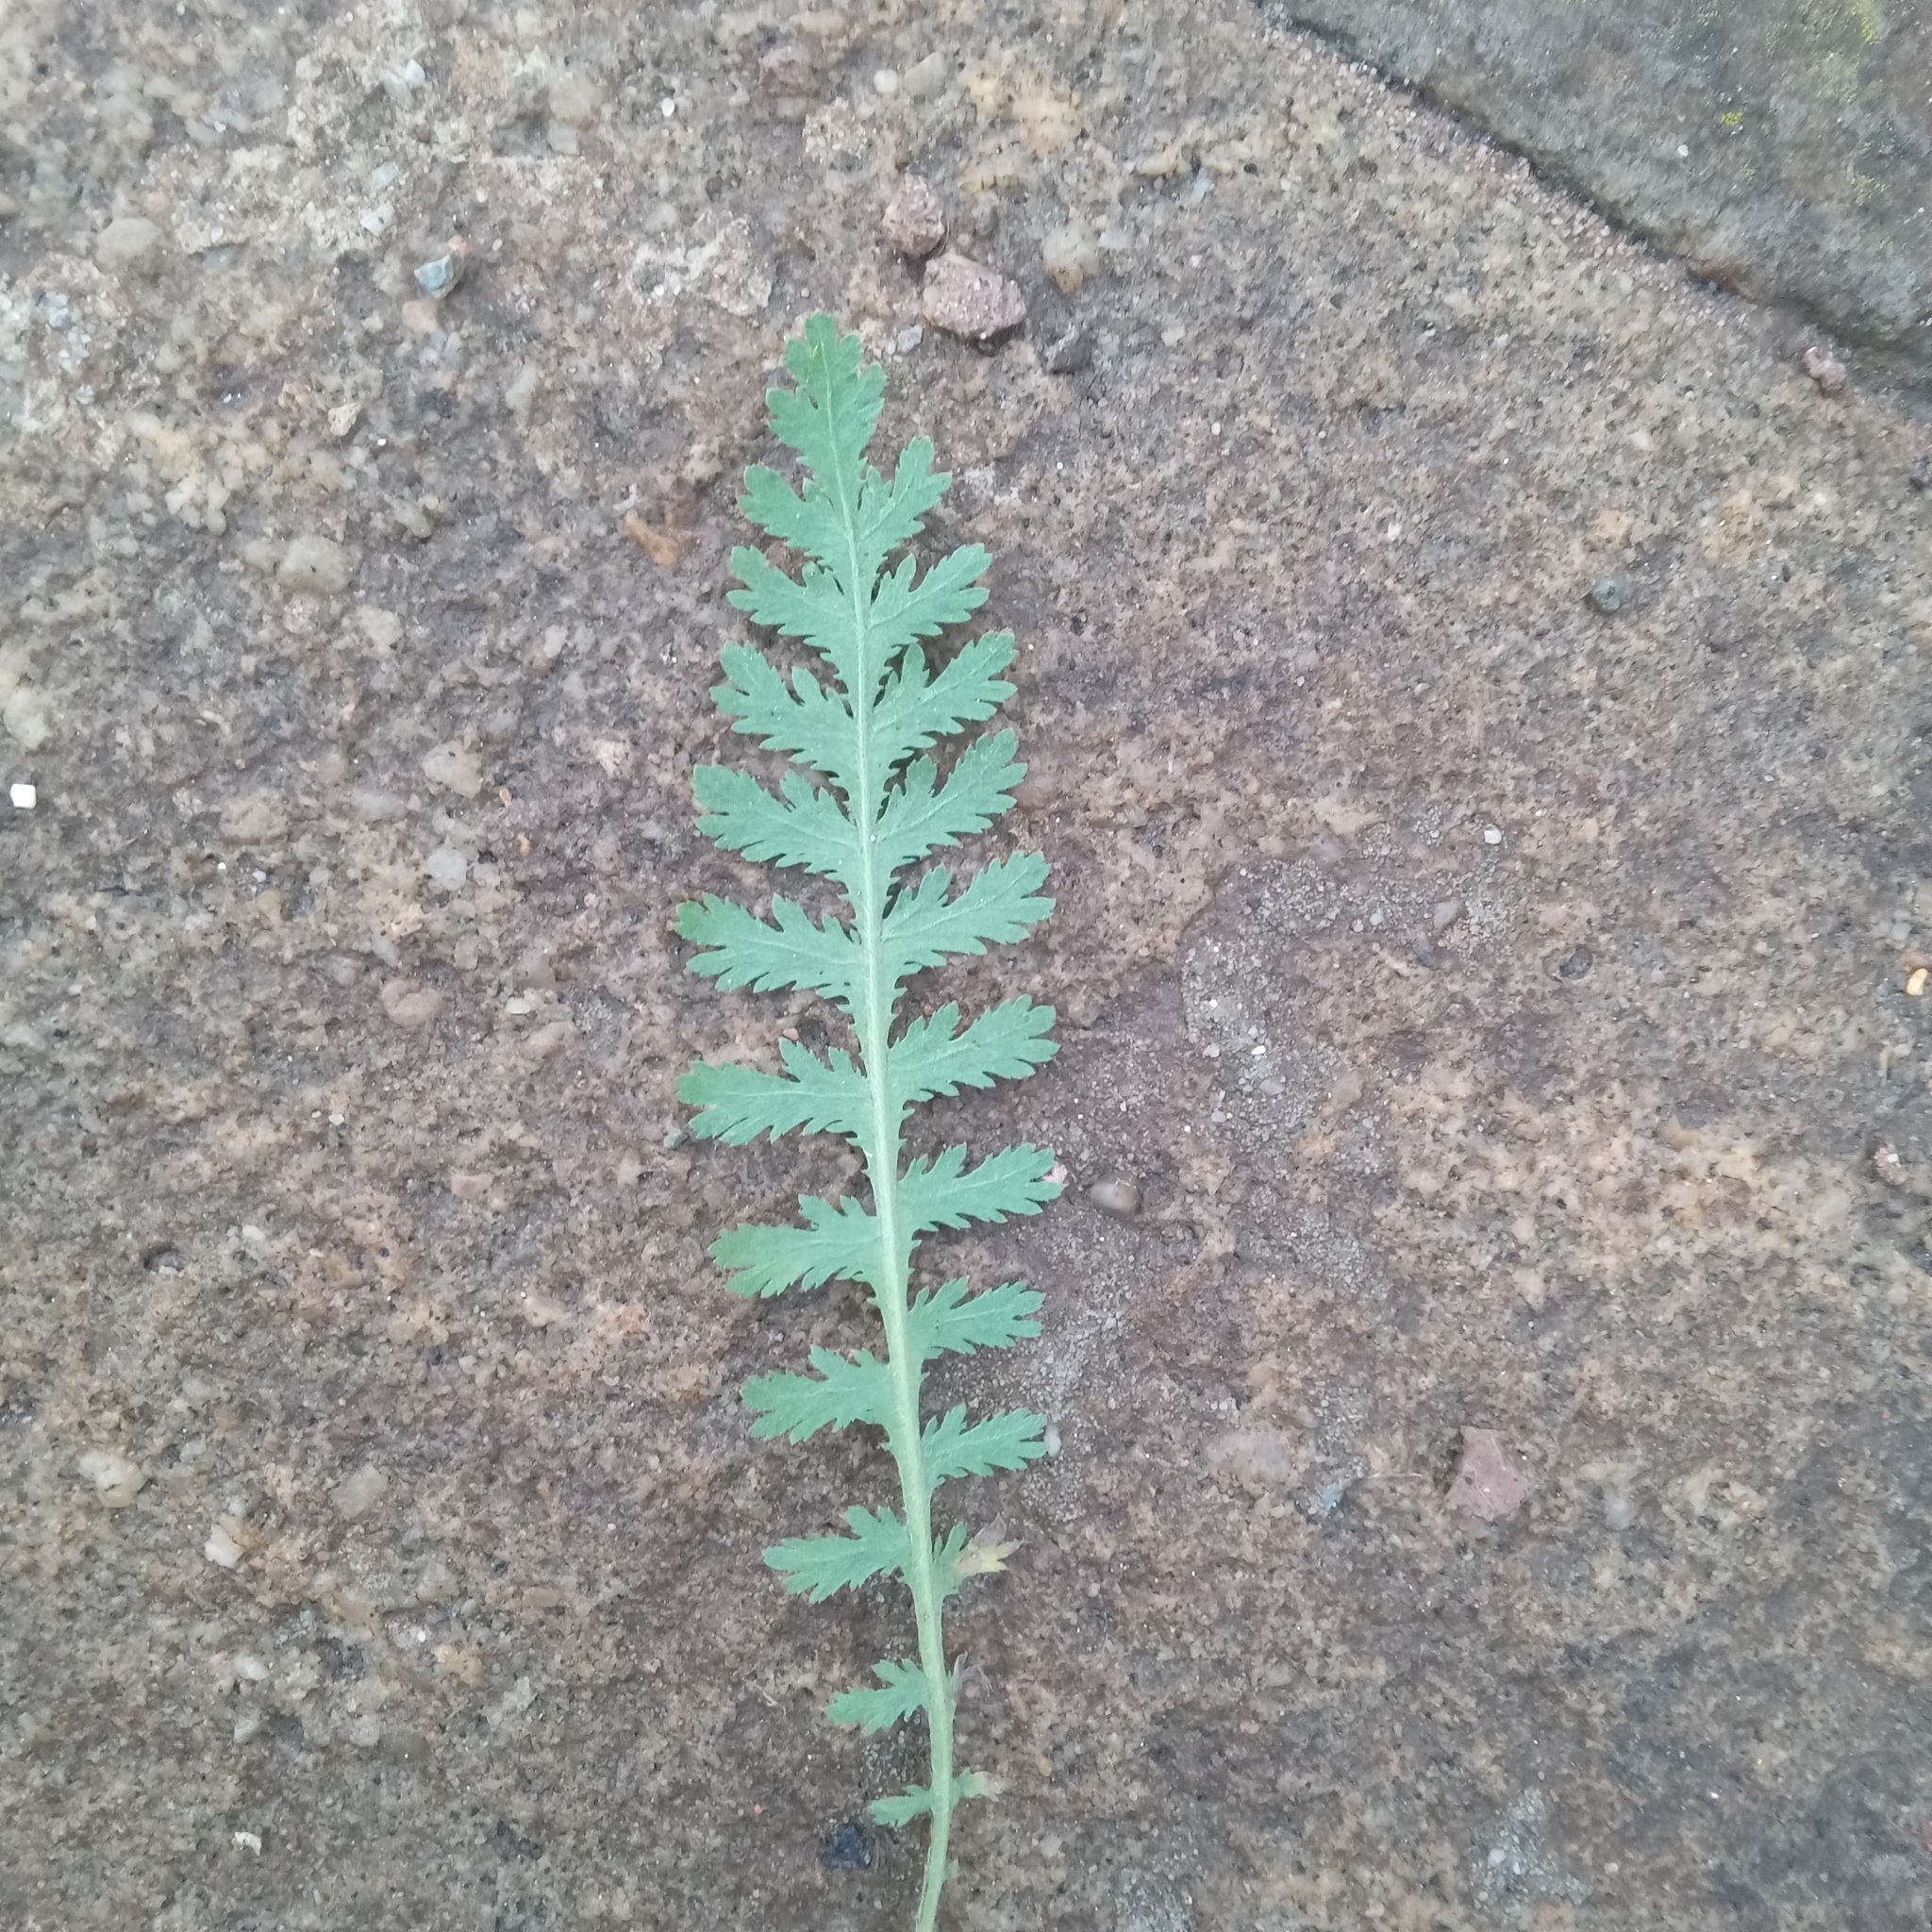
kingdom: Plantae
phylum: Tracheophyta
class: Magnoliopsida
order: Asterales
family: Asteraceae
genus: Achillea
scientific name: Achillea filipendulina
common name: Fernleaf yarrow
